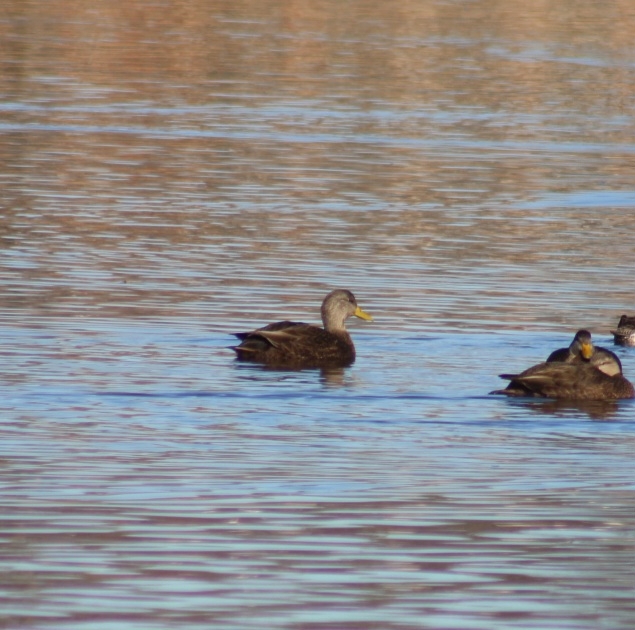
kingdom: Animalia
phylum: Chordata
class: Aves
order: Anseriformes
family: Anatidae
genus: Anas
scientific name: Anas rubripes
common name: American black duck
